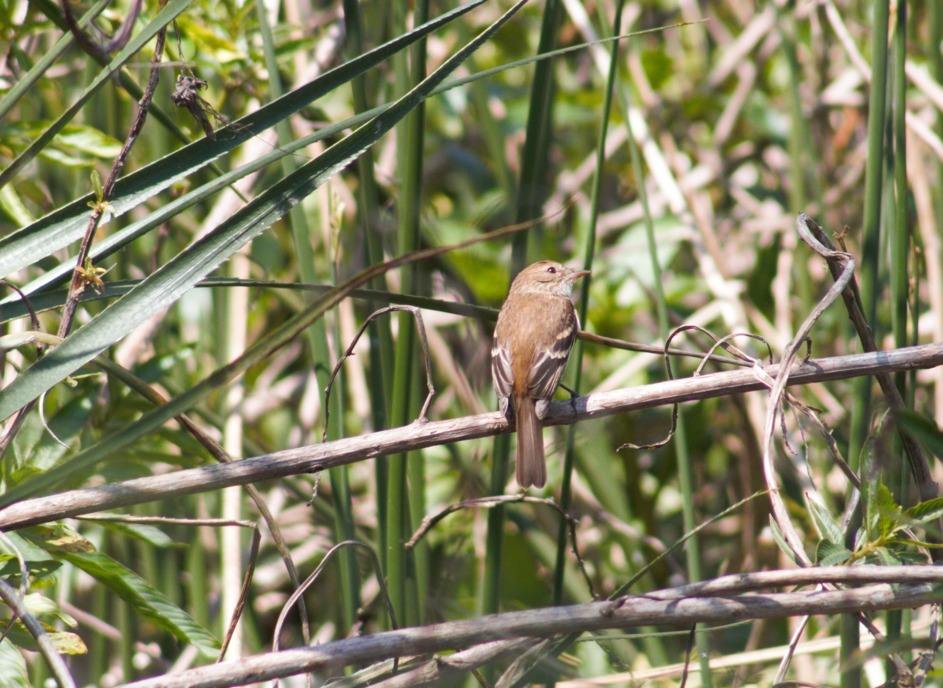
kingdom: Animalia
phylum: Chordata
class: Aves
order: Passeriformes
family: Tyrannidae
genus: Myiophobus
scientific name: Myiophobus fasciatus
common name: Bran-colored flycatcher
